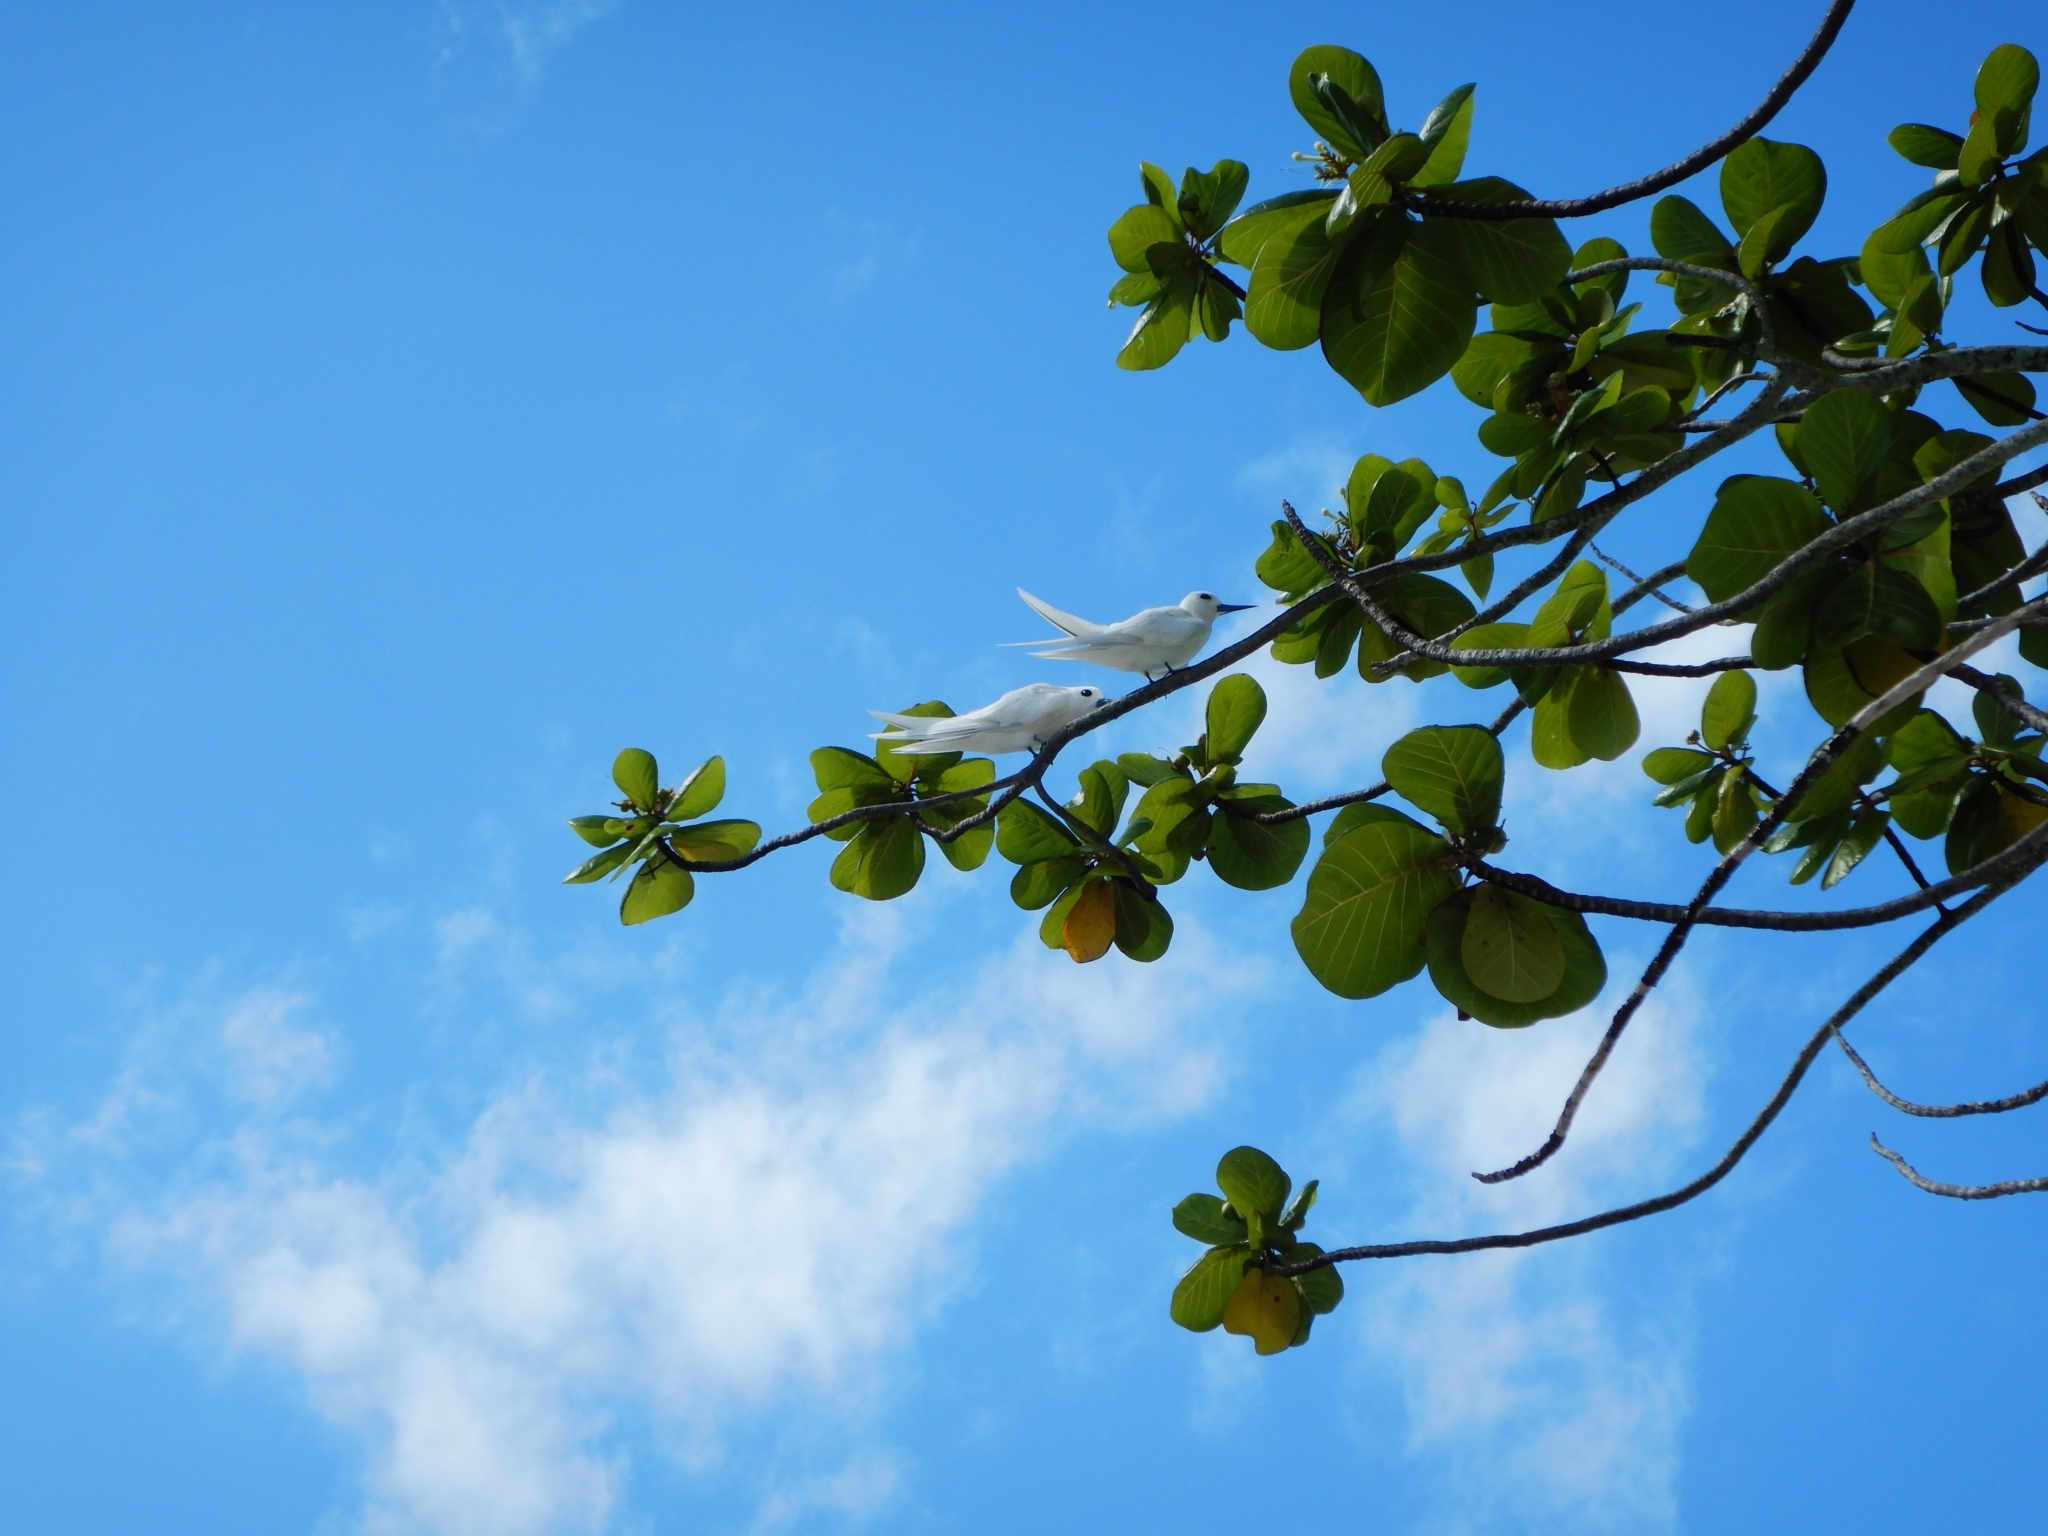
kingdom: Animalia
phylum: Chordata
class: Aves
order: Charadriiformes
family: Laridae
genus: Gygis
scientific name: Gygis alba
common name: White tern
